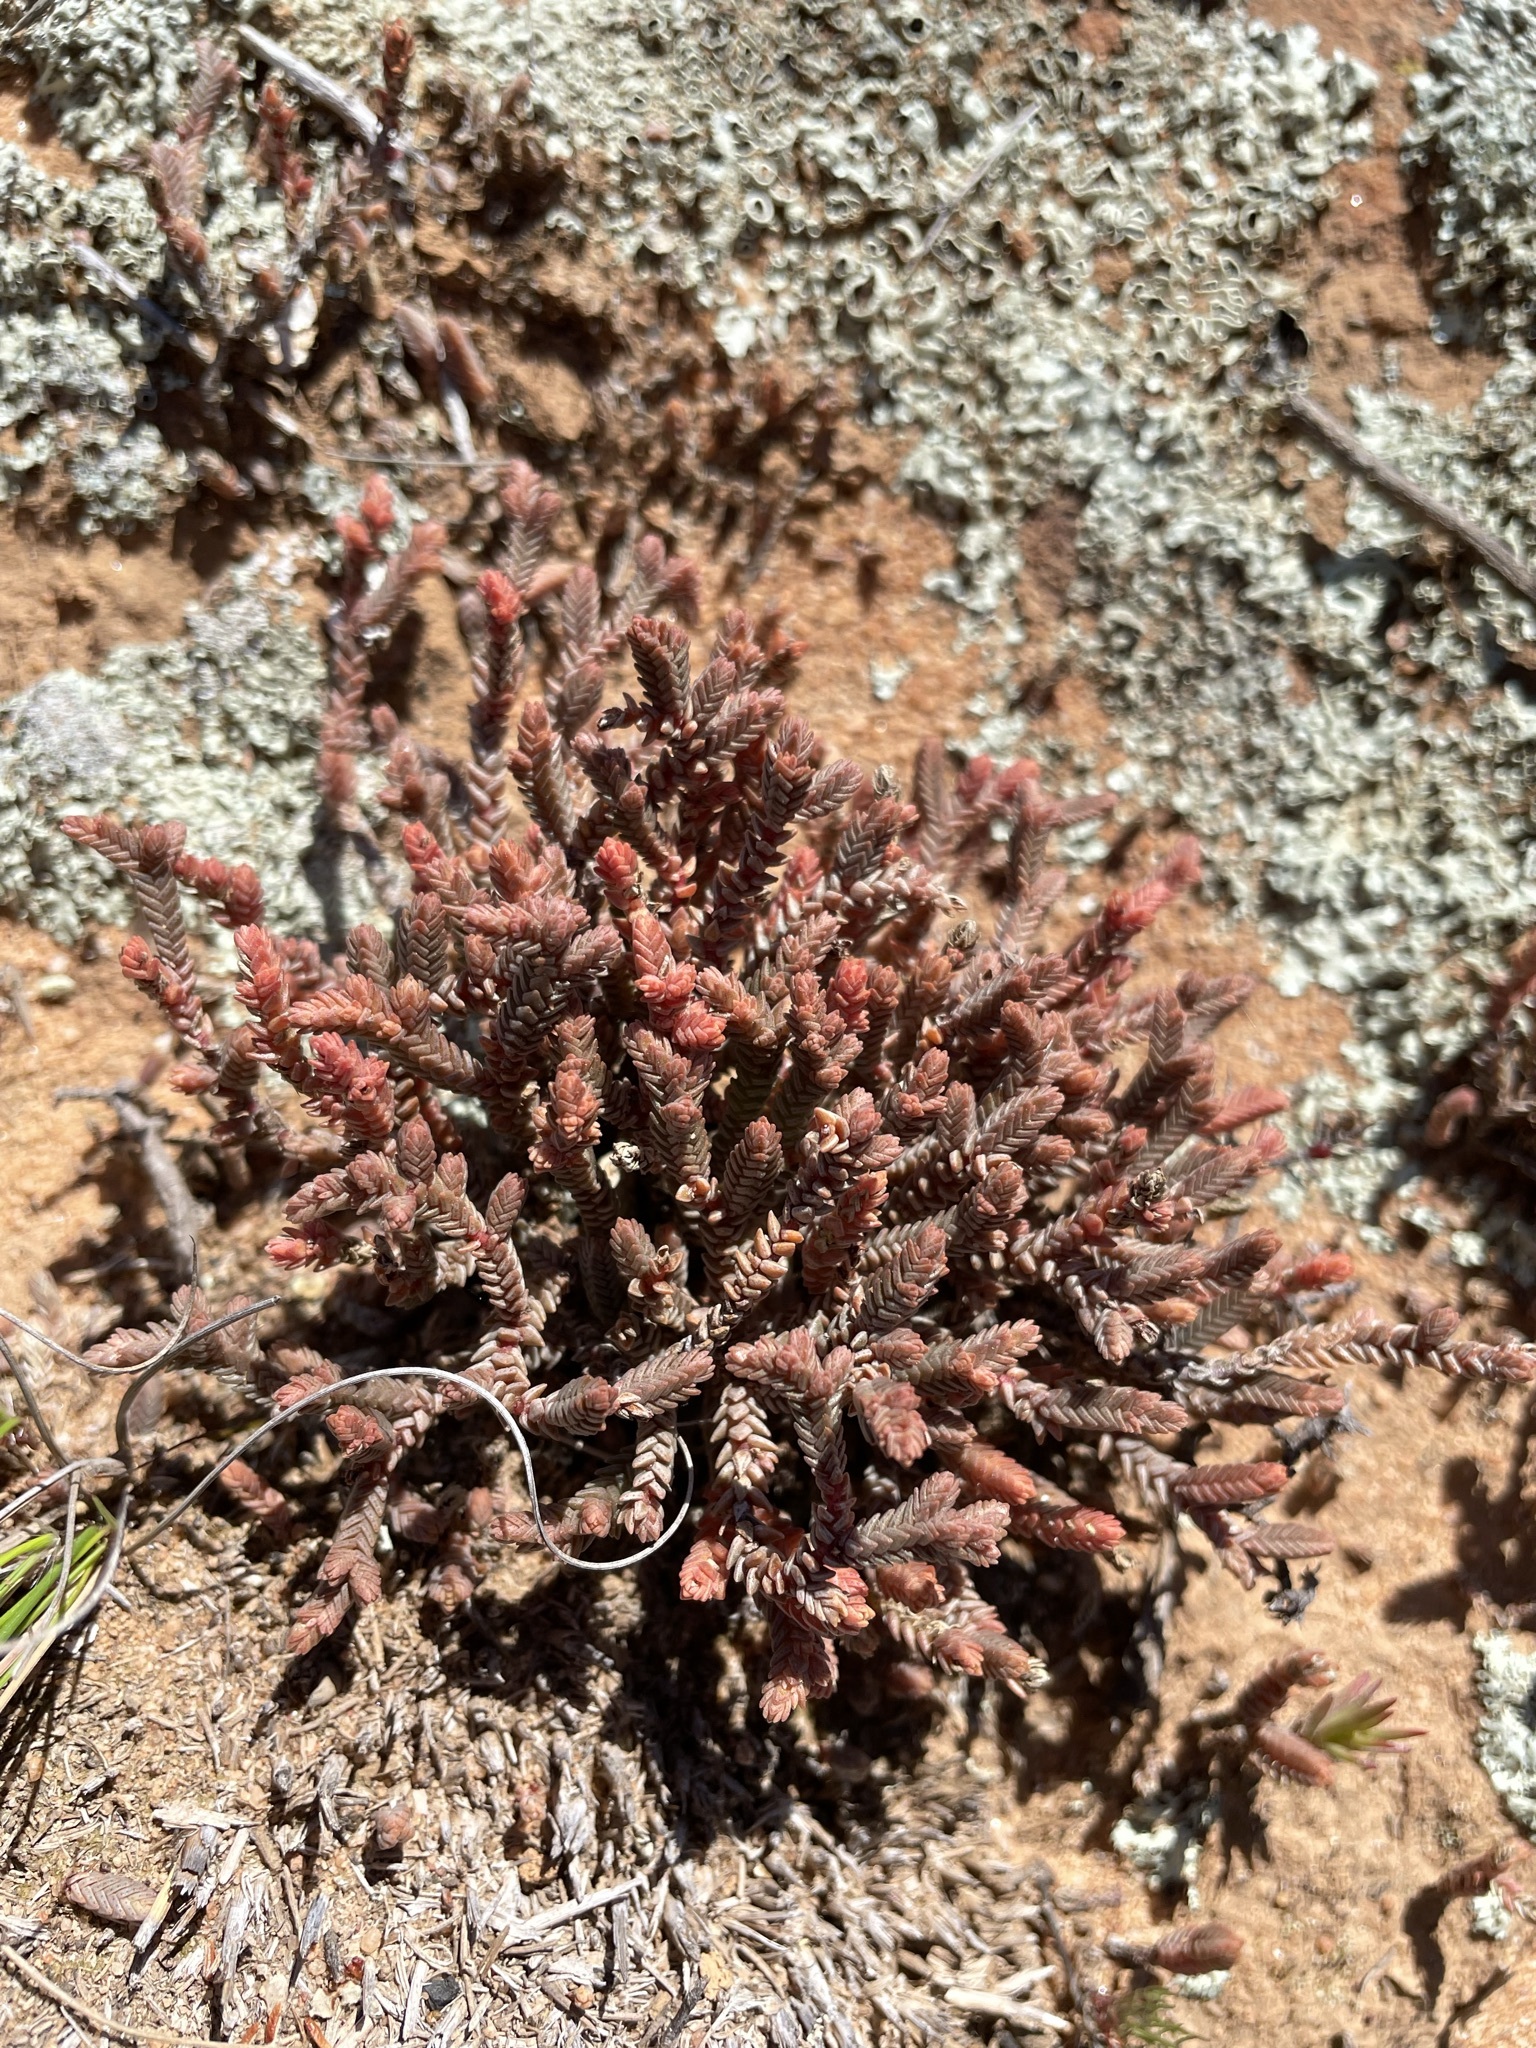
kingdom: Plantae
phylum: Tracheophyta
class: Magnoliopsida
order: Saxifragales
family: Crassulaceae
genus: Crassula
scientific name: Crassula muscosa
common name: Toy-cypress
